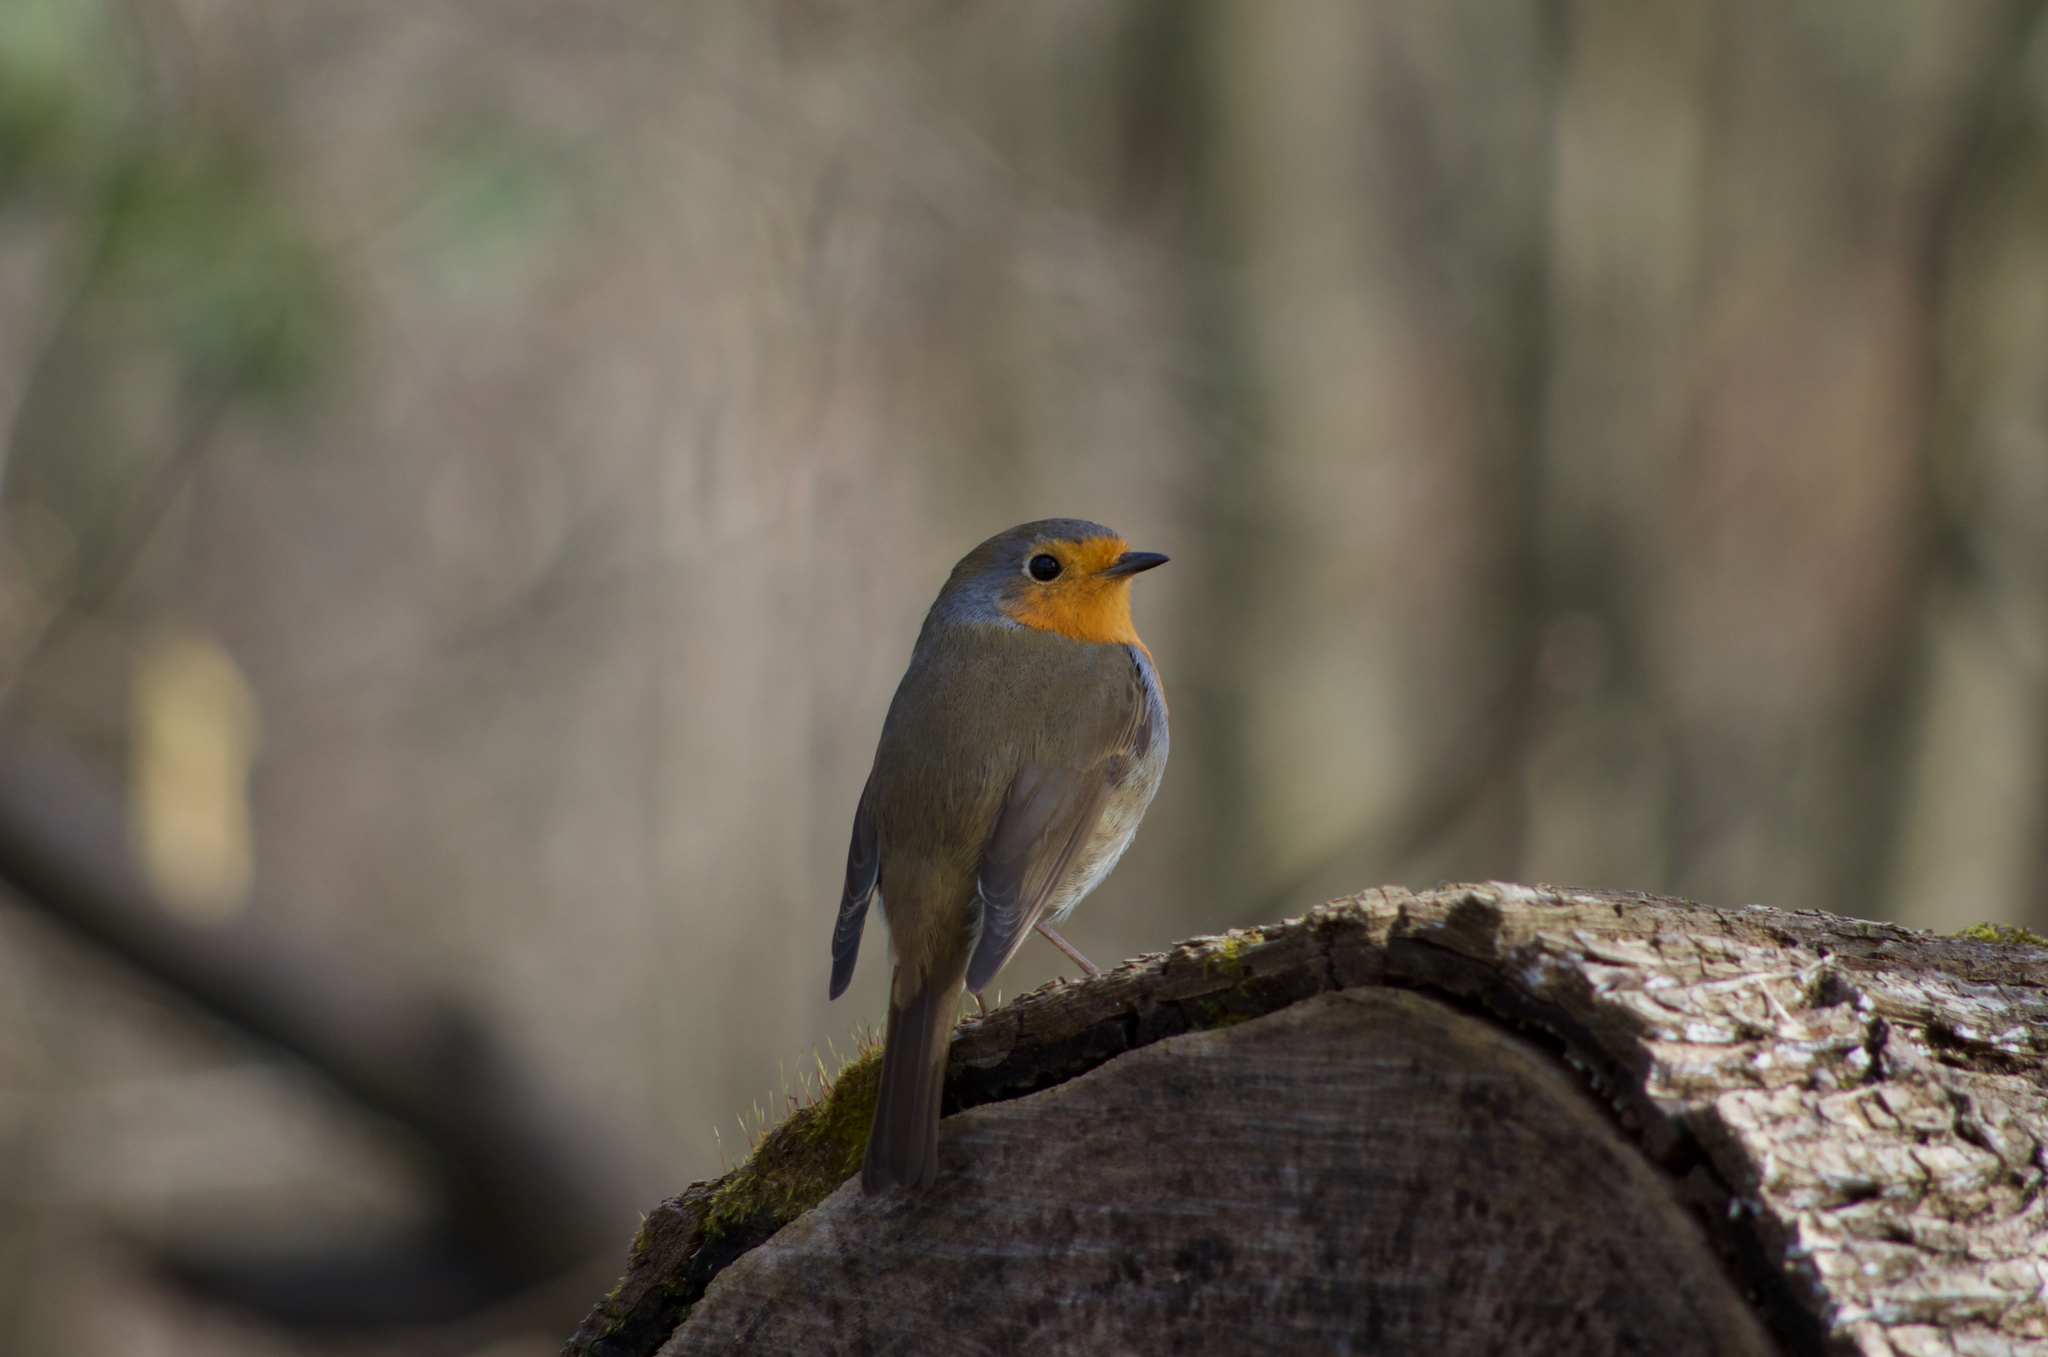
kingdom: Animalia
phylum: Chordata
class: Aves
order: Passeriformes
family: Muscicapidae
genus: Erithacus
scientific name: Erithacus rubecula
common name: European robin
